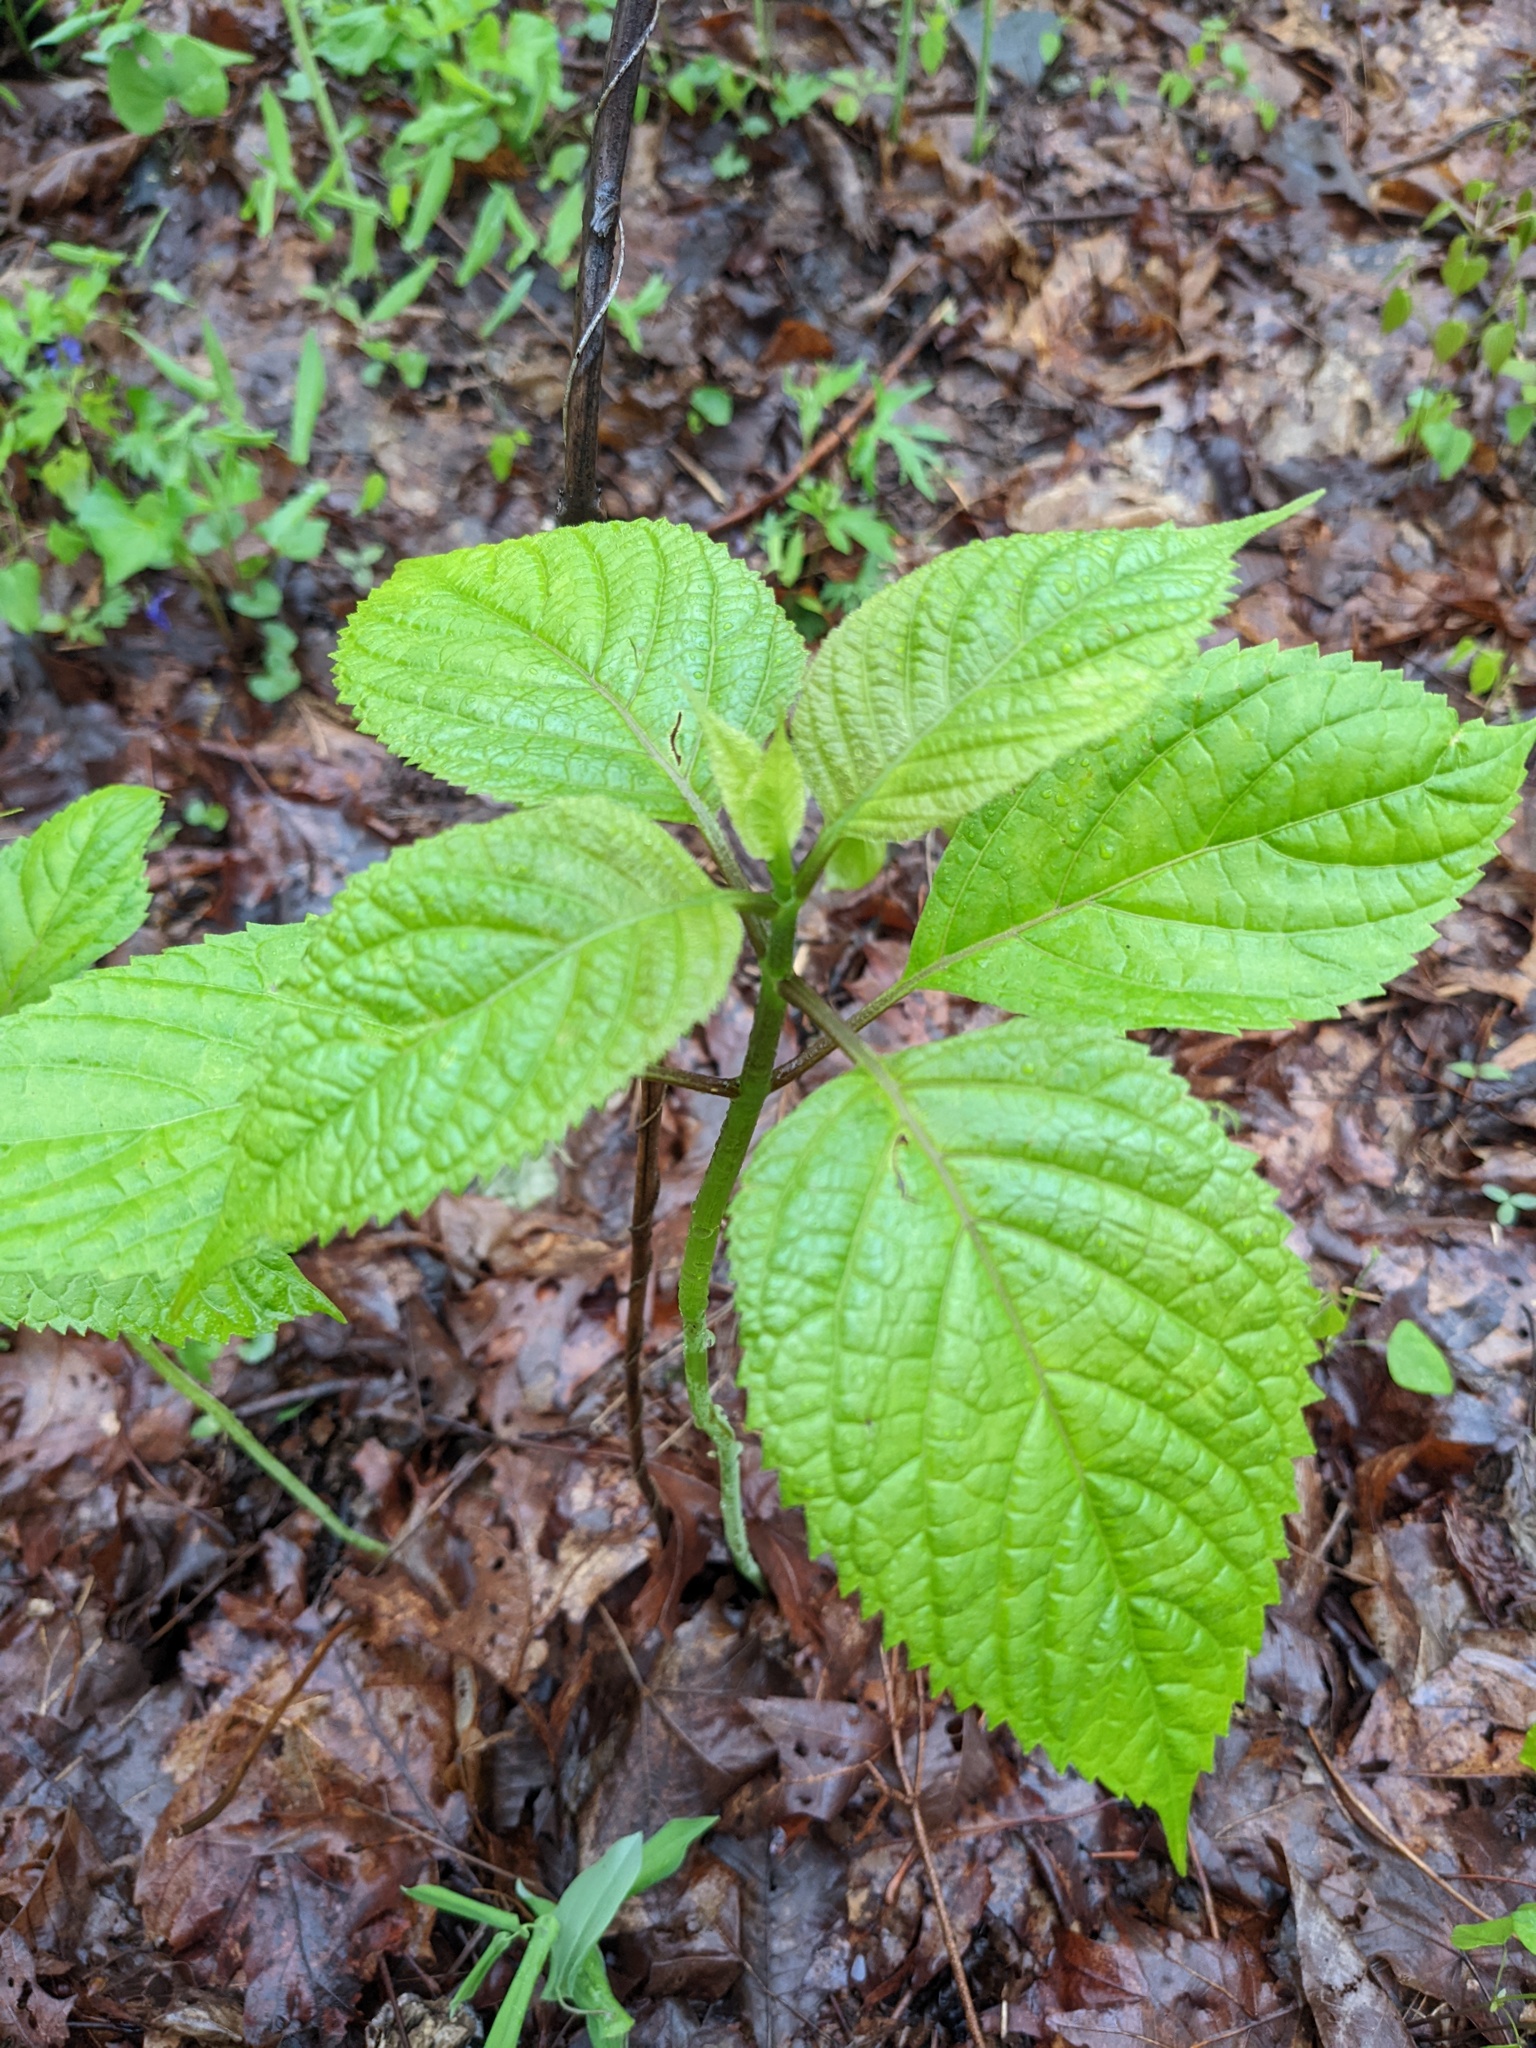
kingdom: Plantae
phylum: Tracheophyta
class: Magnoliopsida
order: Lamiales
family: Lamiaceae
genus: Collinsonia
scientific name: Collinsonia canadensis
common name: Northern horsebalm
